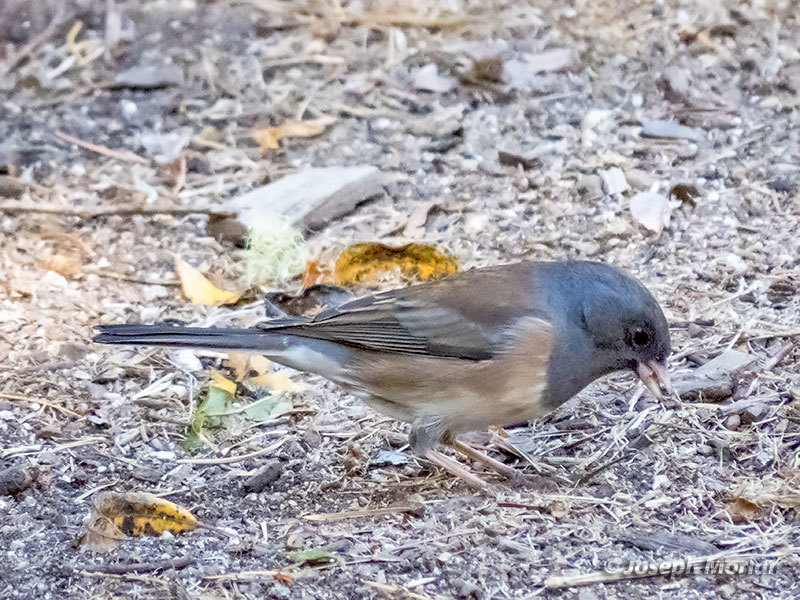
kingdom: Animalia
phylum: Chordata
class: Aves
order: Passeriformes
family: Passerellidae
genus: Junco
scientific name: Junco hyemalis
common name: Dark-eyed junco
